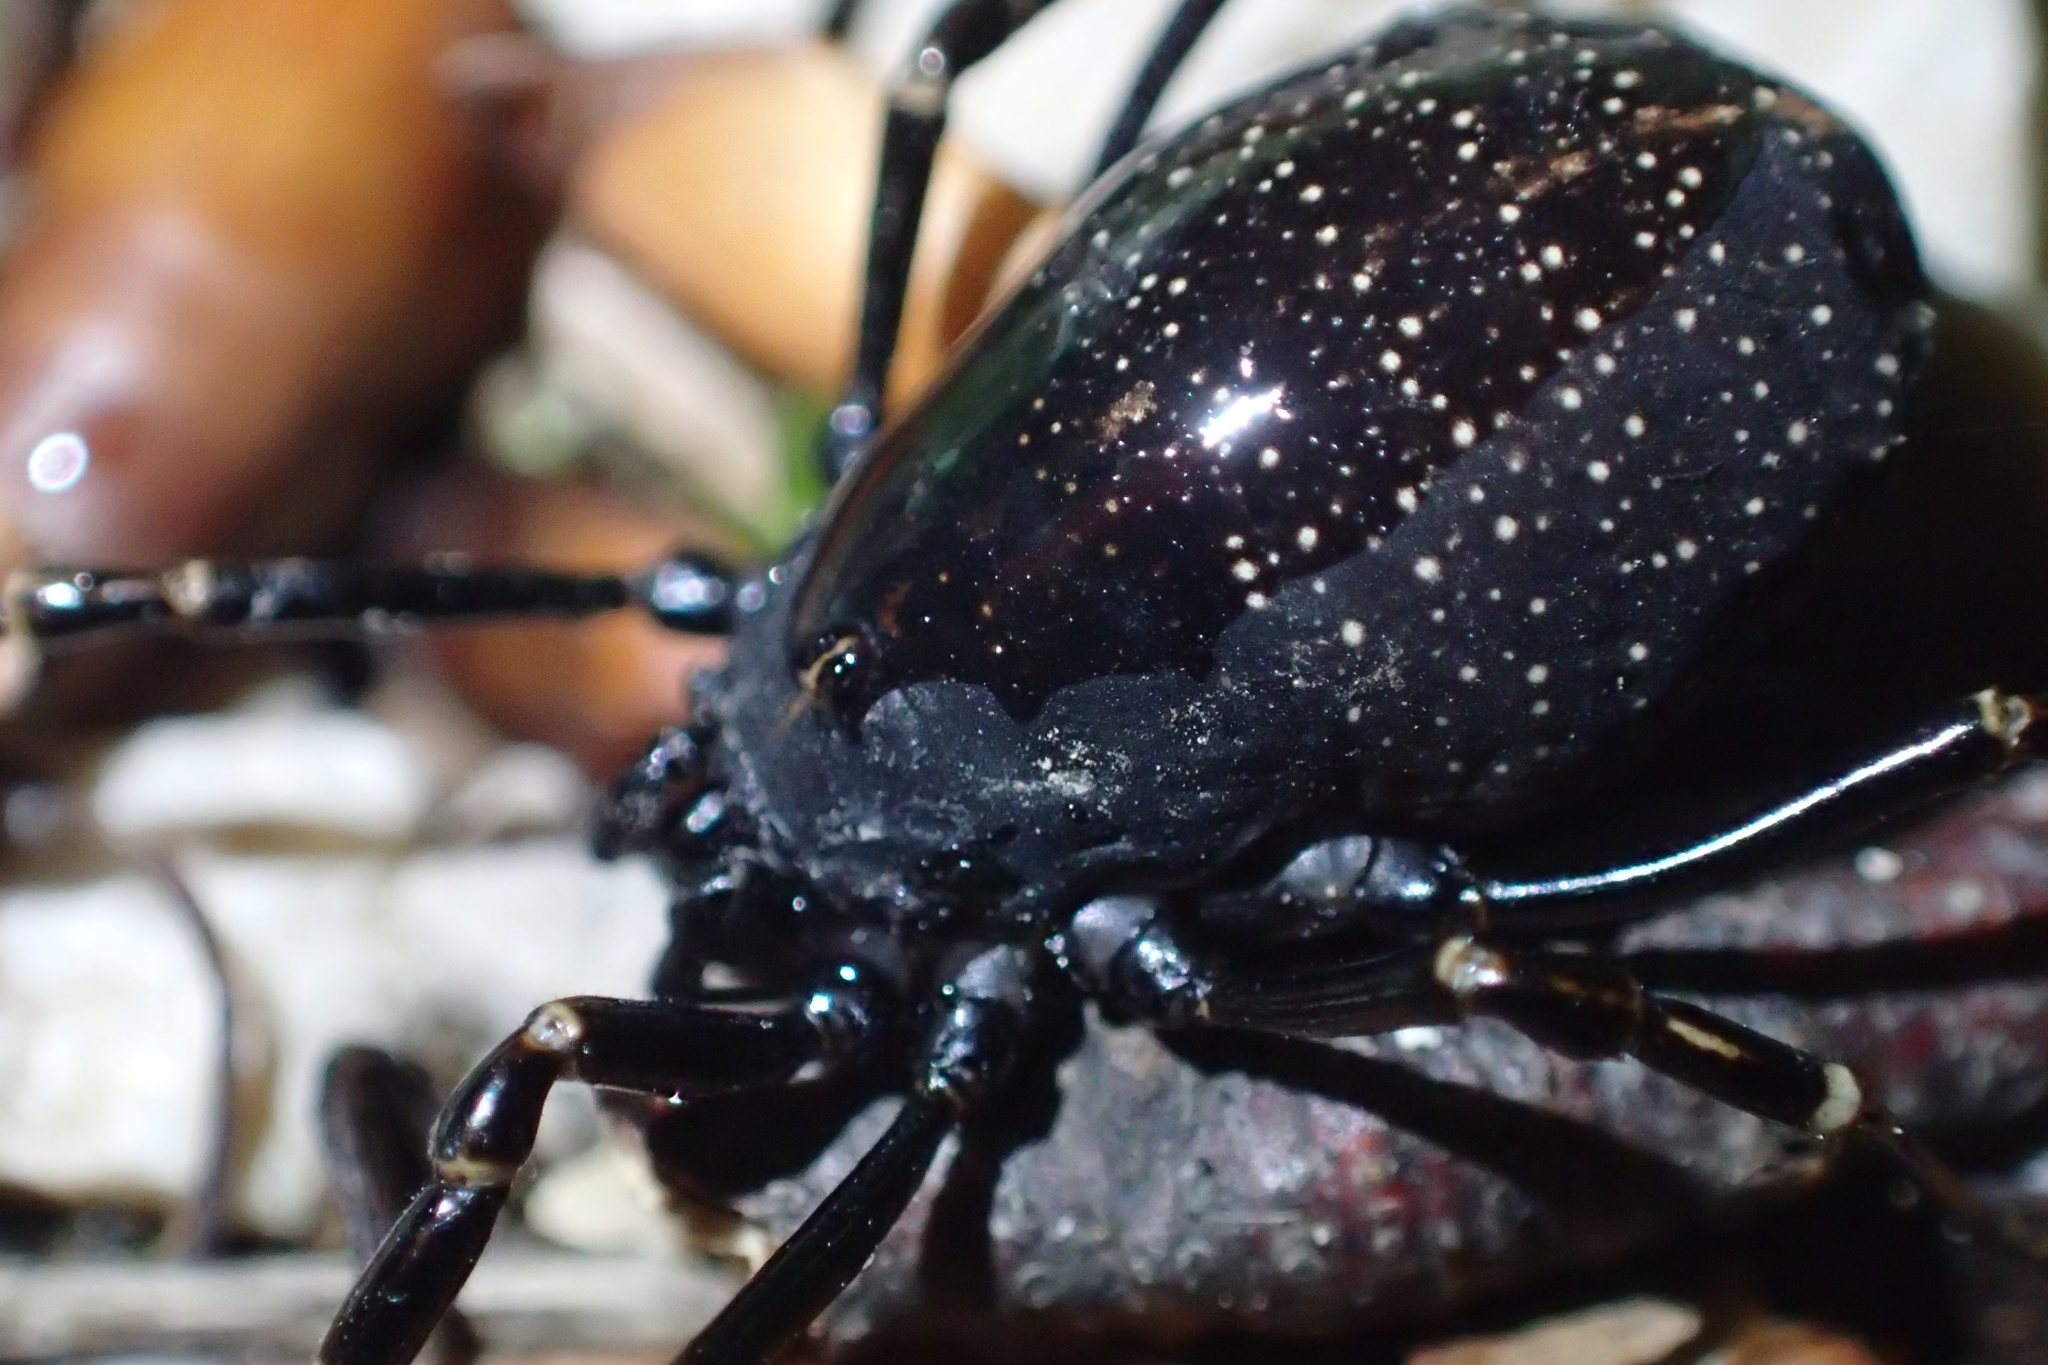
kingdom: Animalia
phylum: Arthropoda
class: Arachnida
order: Opiliones
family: Phalangiidae
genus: Egaenus
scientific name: Egaenus convexus
